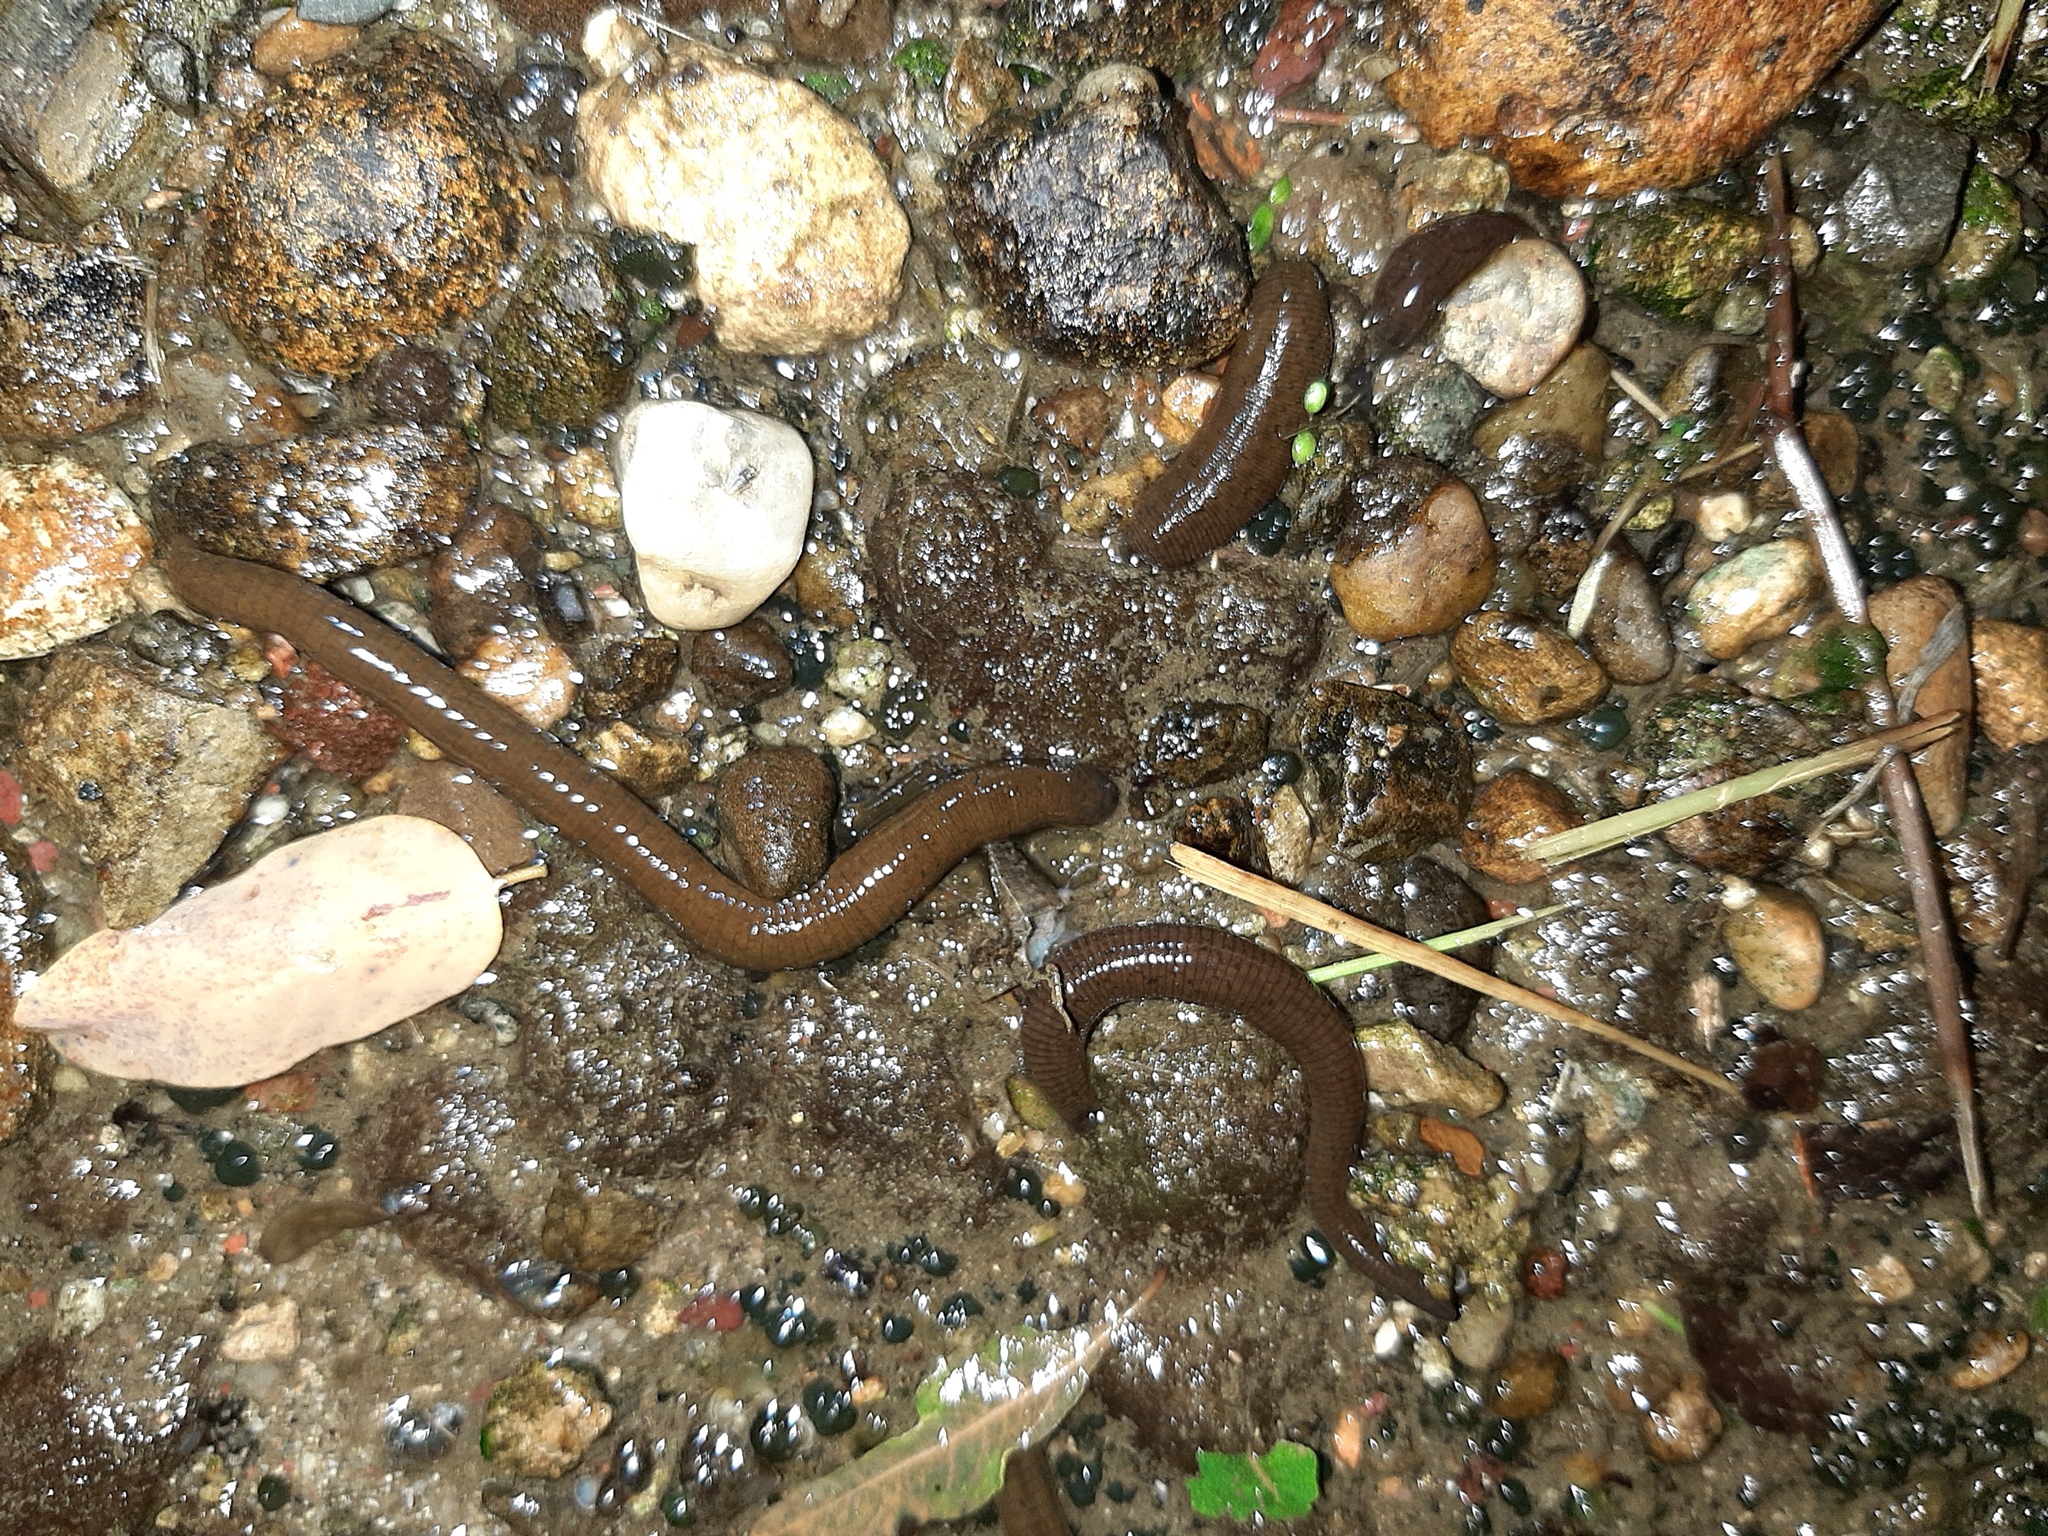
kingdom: Animalia
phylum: Annelida
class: Clitellata
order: Arhynchobdellida
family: Haemopidae
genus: Haemopis
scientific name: Haemopis sanguisuga
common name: Horse leech
